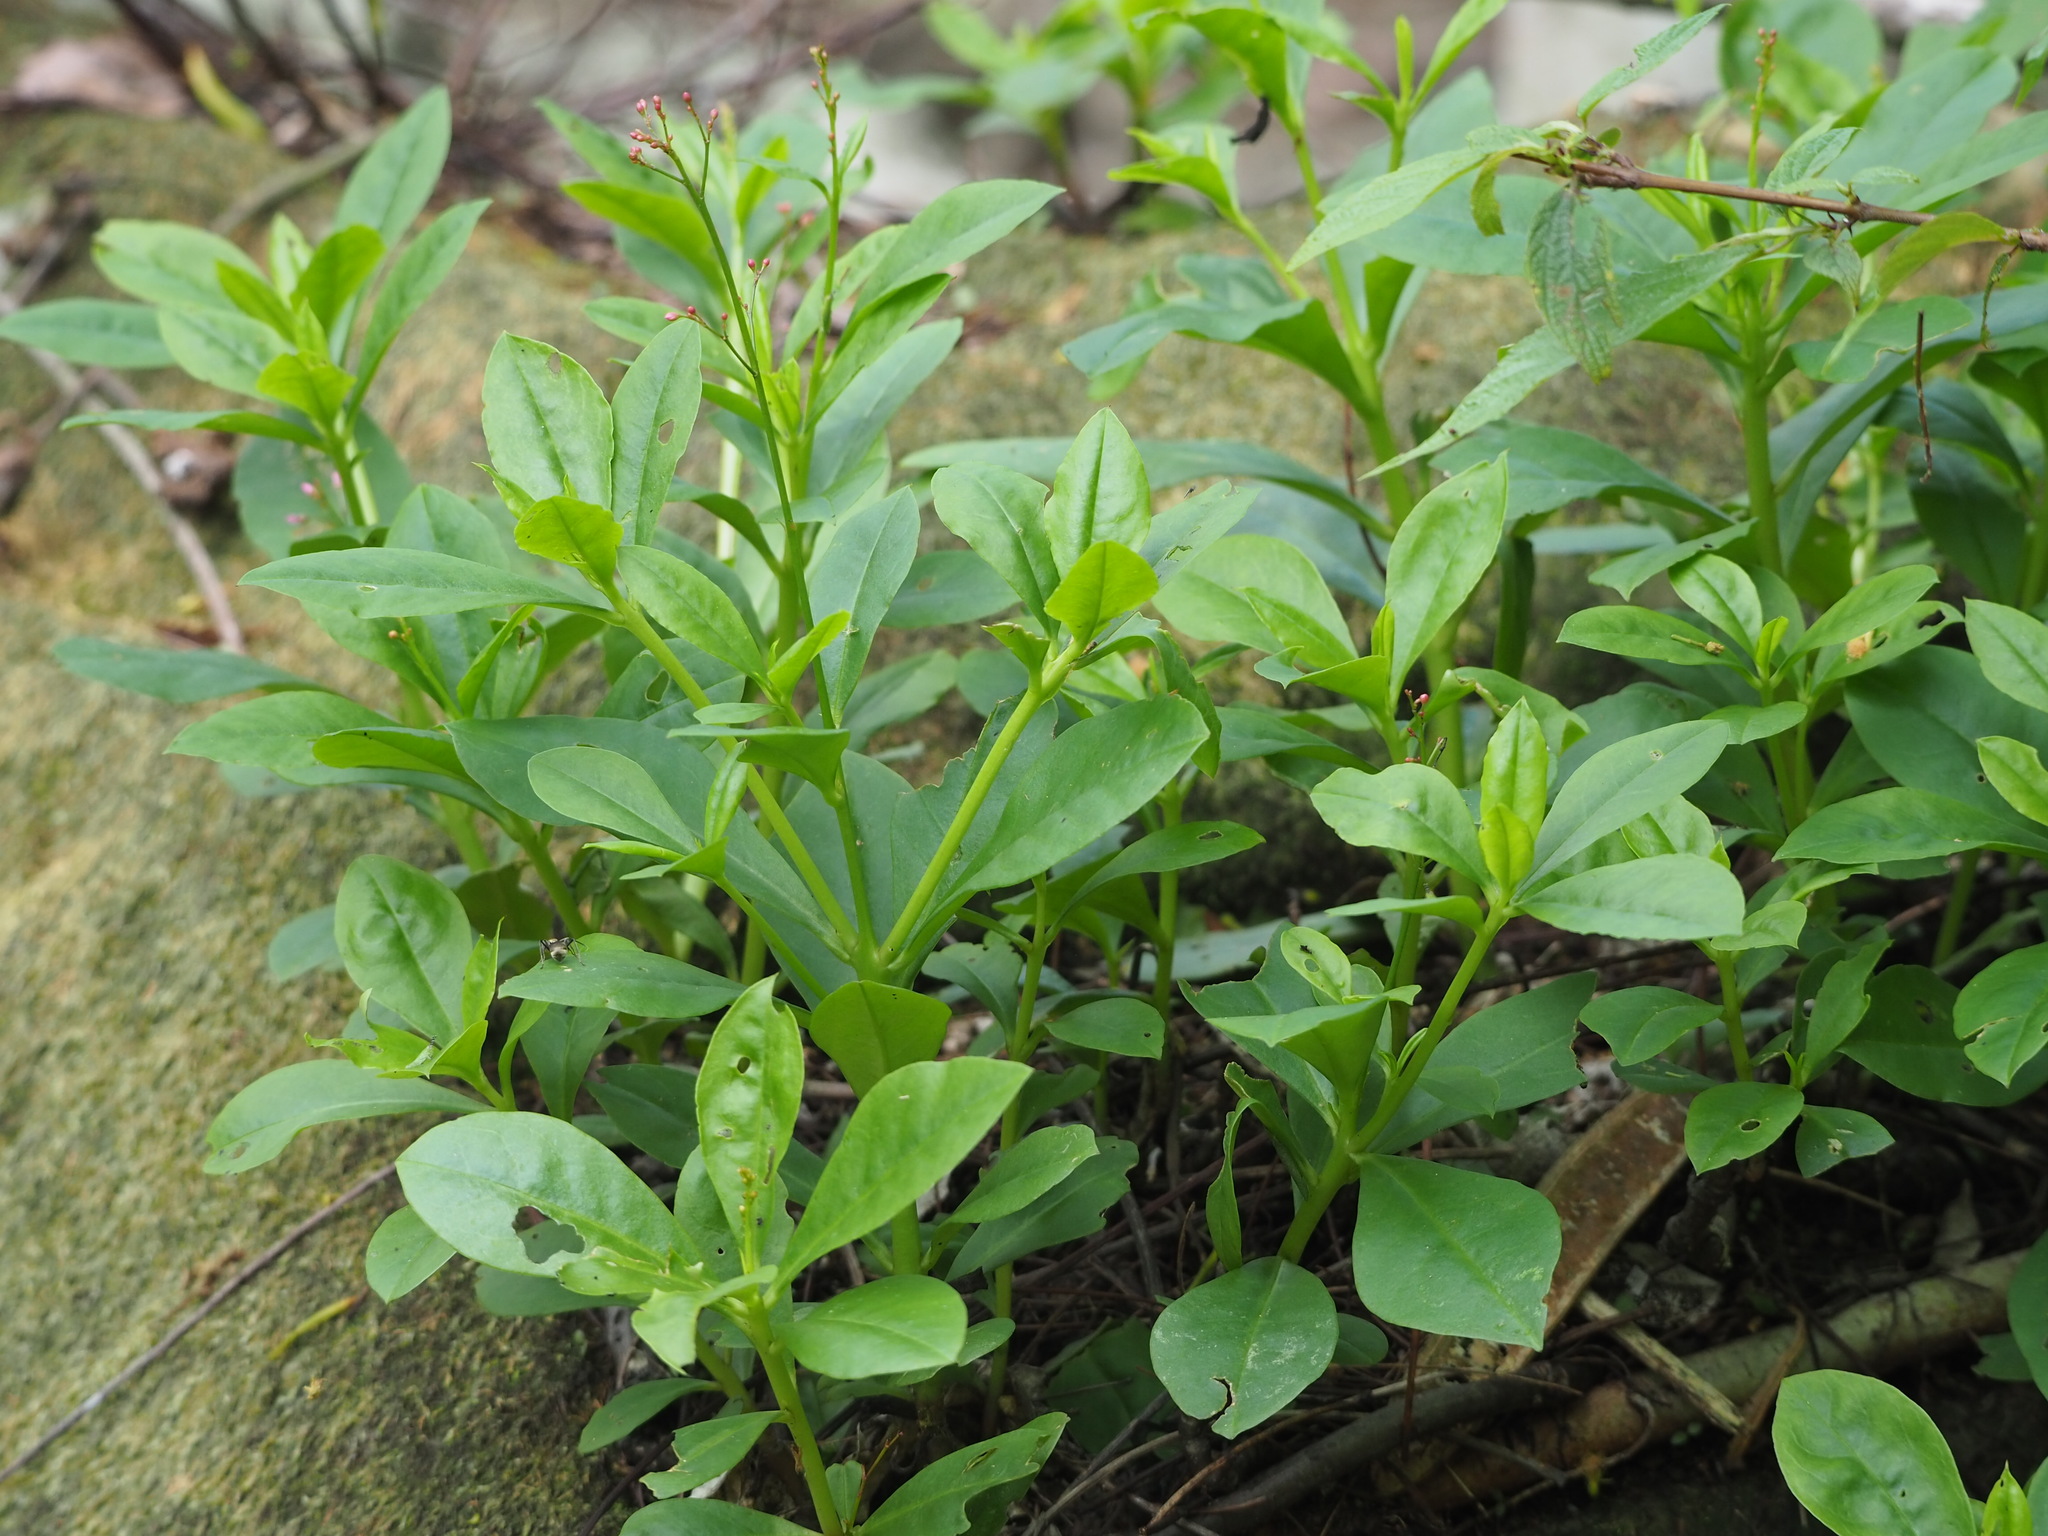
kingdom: Plantae
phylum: Tracheophyta
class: Magnoliopsida
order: Caryophyllales
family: Talinaceae
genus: Talinum
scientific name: Talinum paniculatum
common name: Jewels of opar
